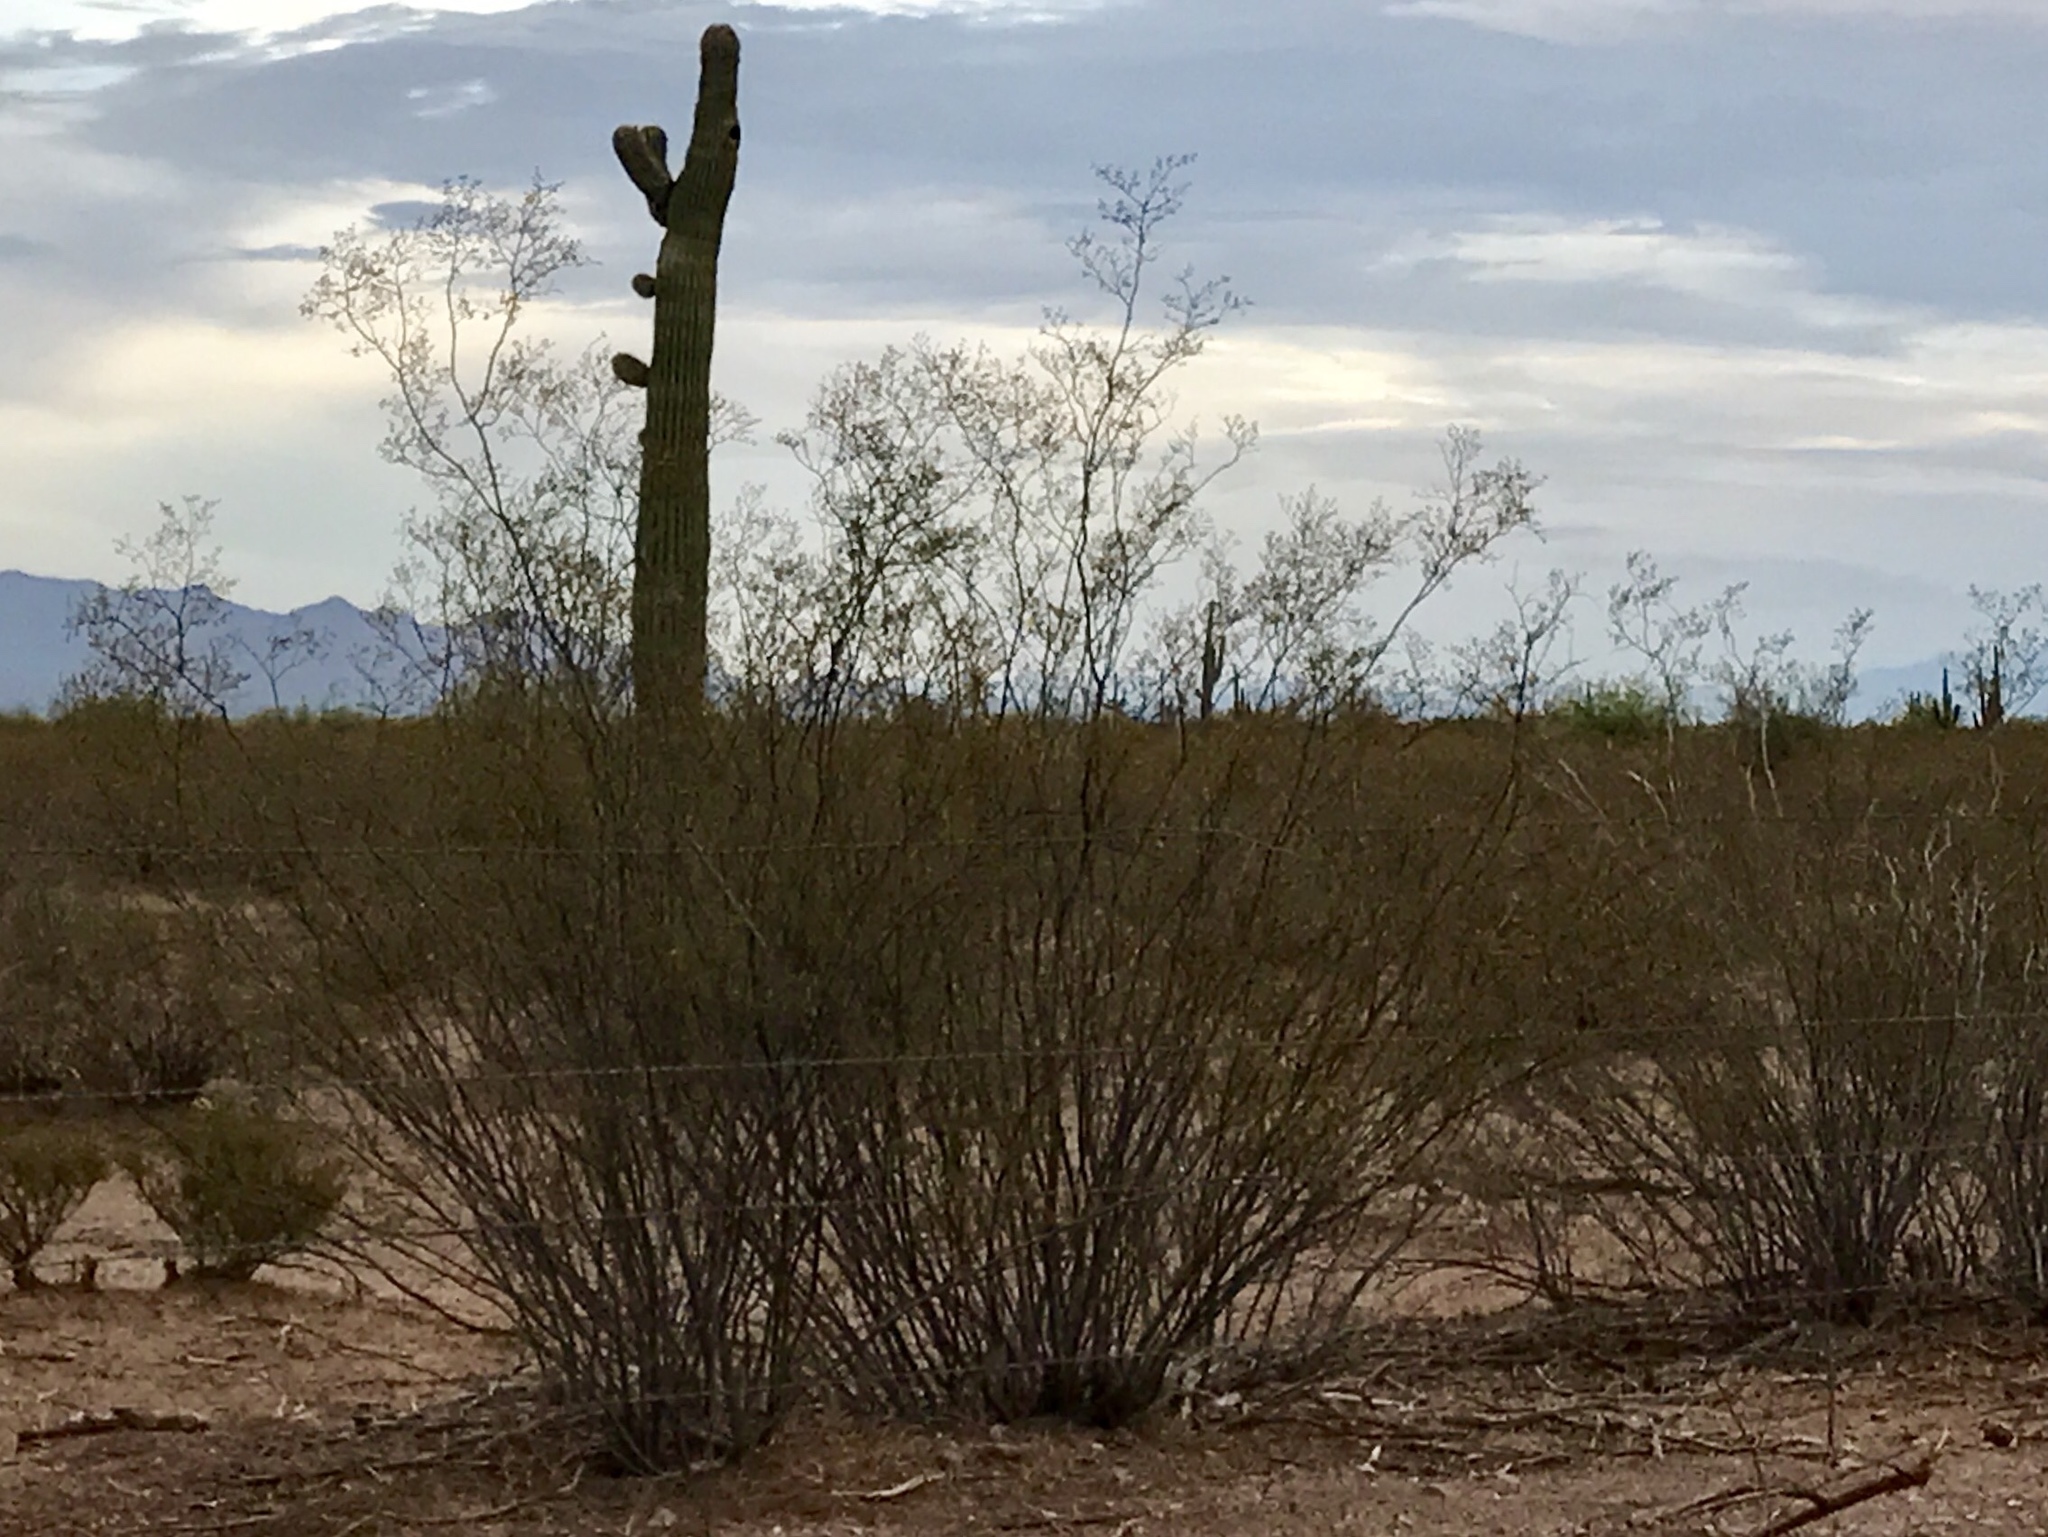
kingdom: Plantae
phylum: Tracheophyta
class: Magnoliopsida
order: Zygophyllales
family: Zygophyllaceae
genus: Larrea
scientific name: Larrea tridentata
